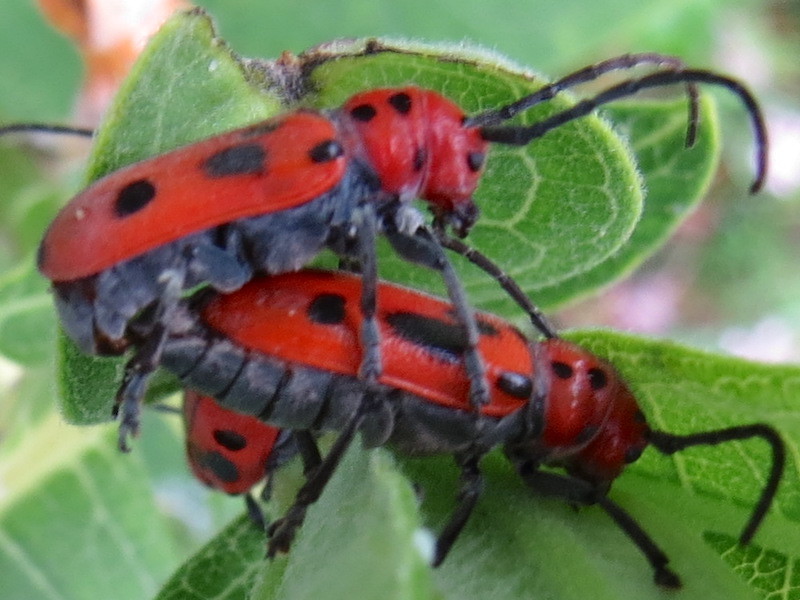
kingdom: Animalia
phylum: Arthropoda
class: Insecta
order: Coleoptera
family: Cerambycidae
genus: Tetraopes
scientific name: Tetraopes tetrophthalmus
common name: Red milkweed beetle
